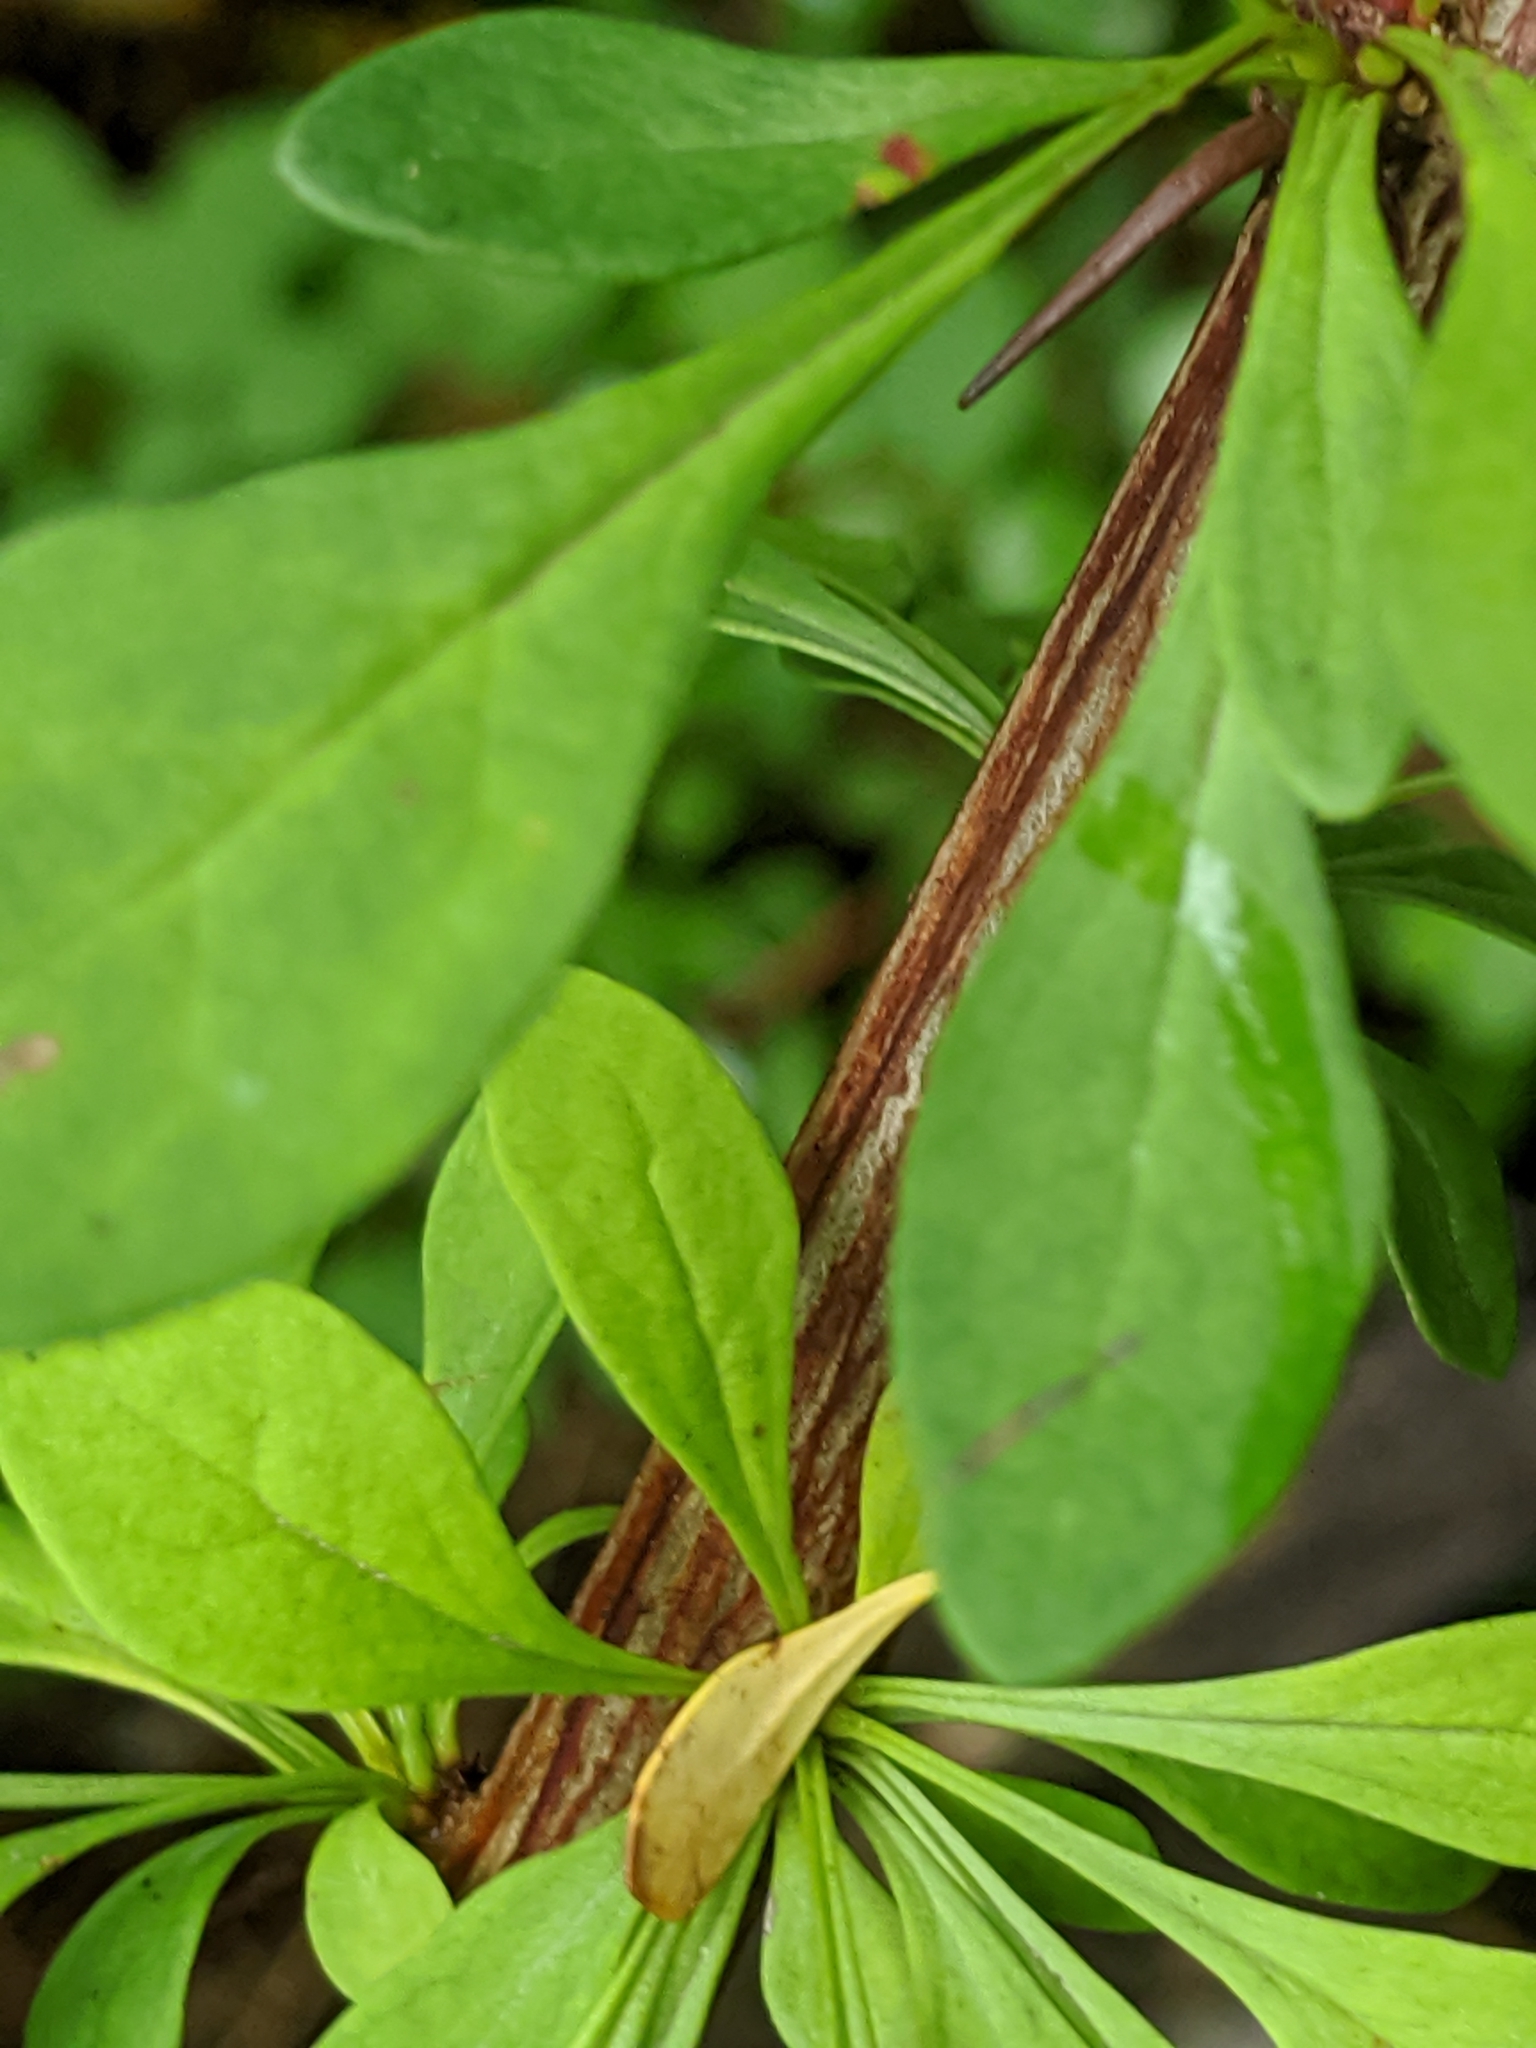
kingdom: Plantae
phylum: Tracheophyta
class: Magnoliopsida
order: Ranunculales
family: Berberidaceae
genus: Berberis
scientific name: Berberis thunbergii
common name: Japanese barberry
